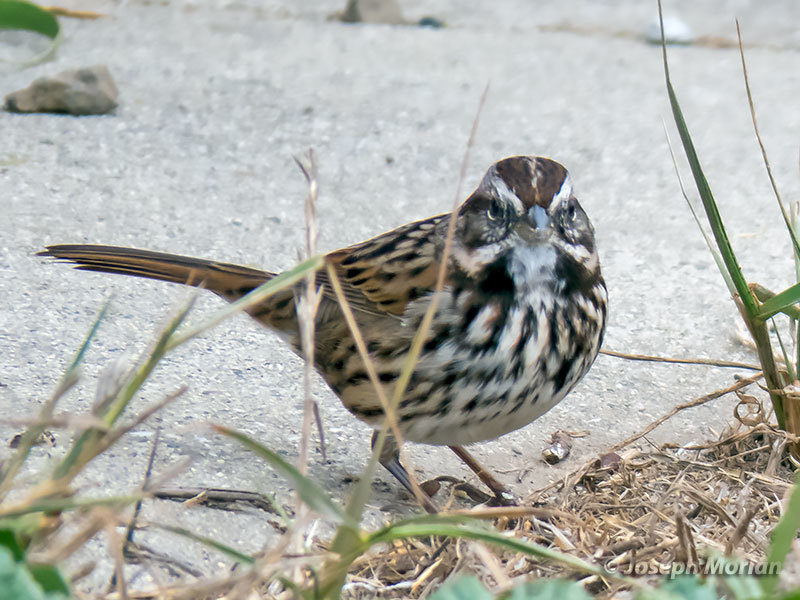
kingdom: Animalia
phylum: Chordata
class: Aves
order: Passeriformes
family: Passerellidae
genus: Melospiza
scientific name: Melospiza melodia
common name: Song sparrow
